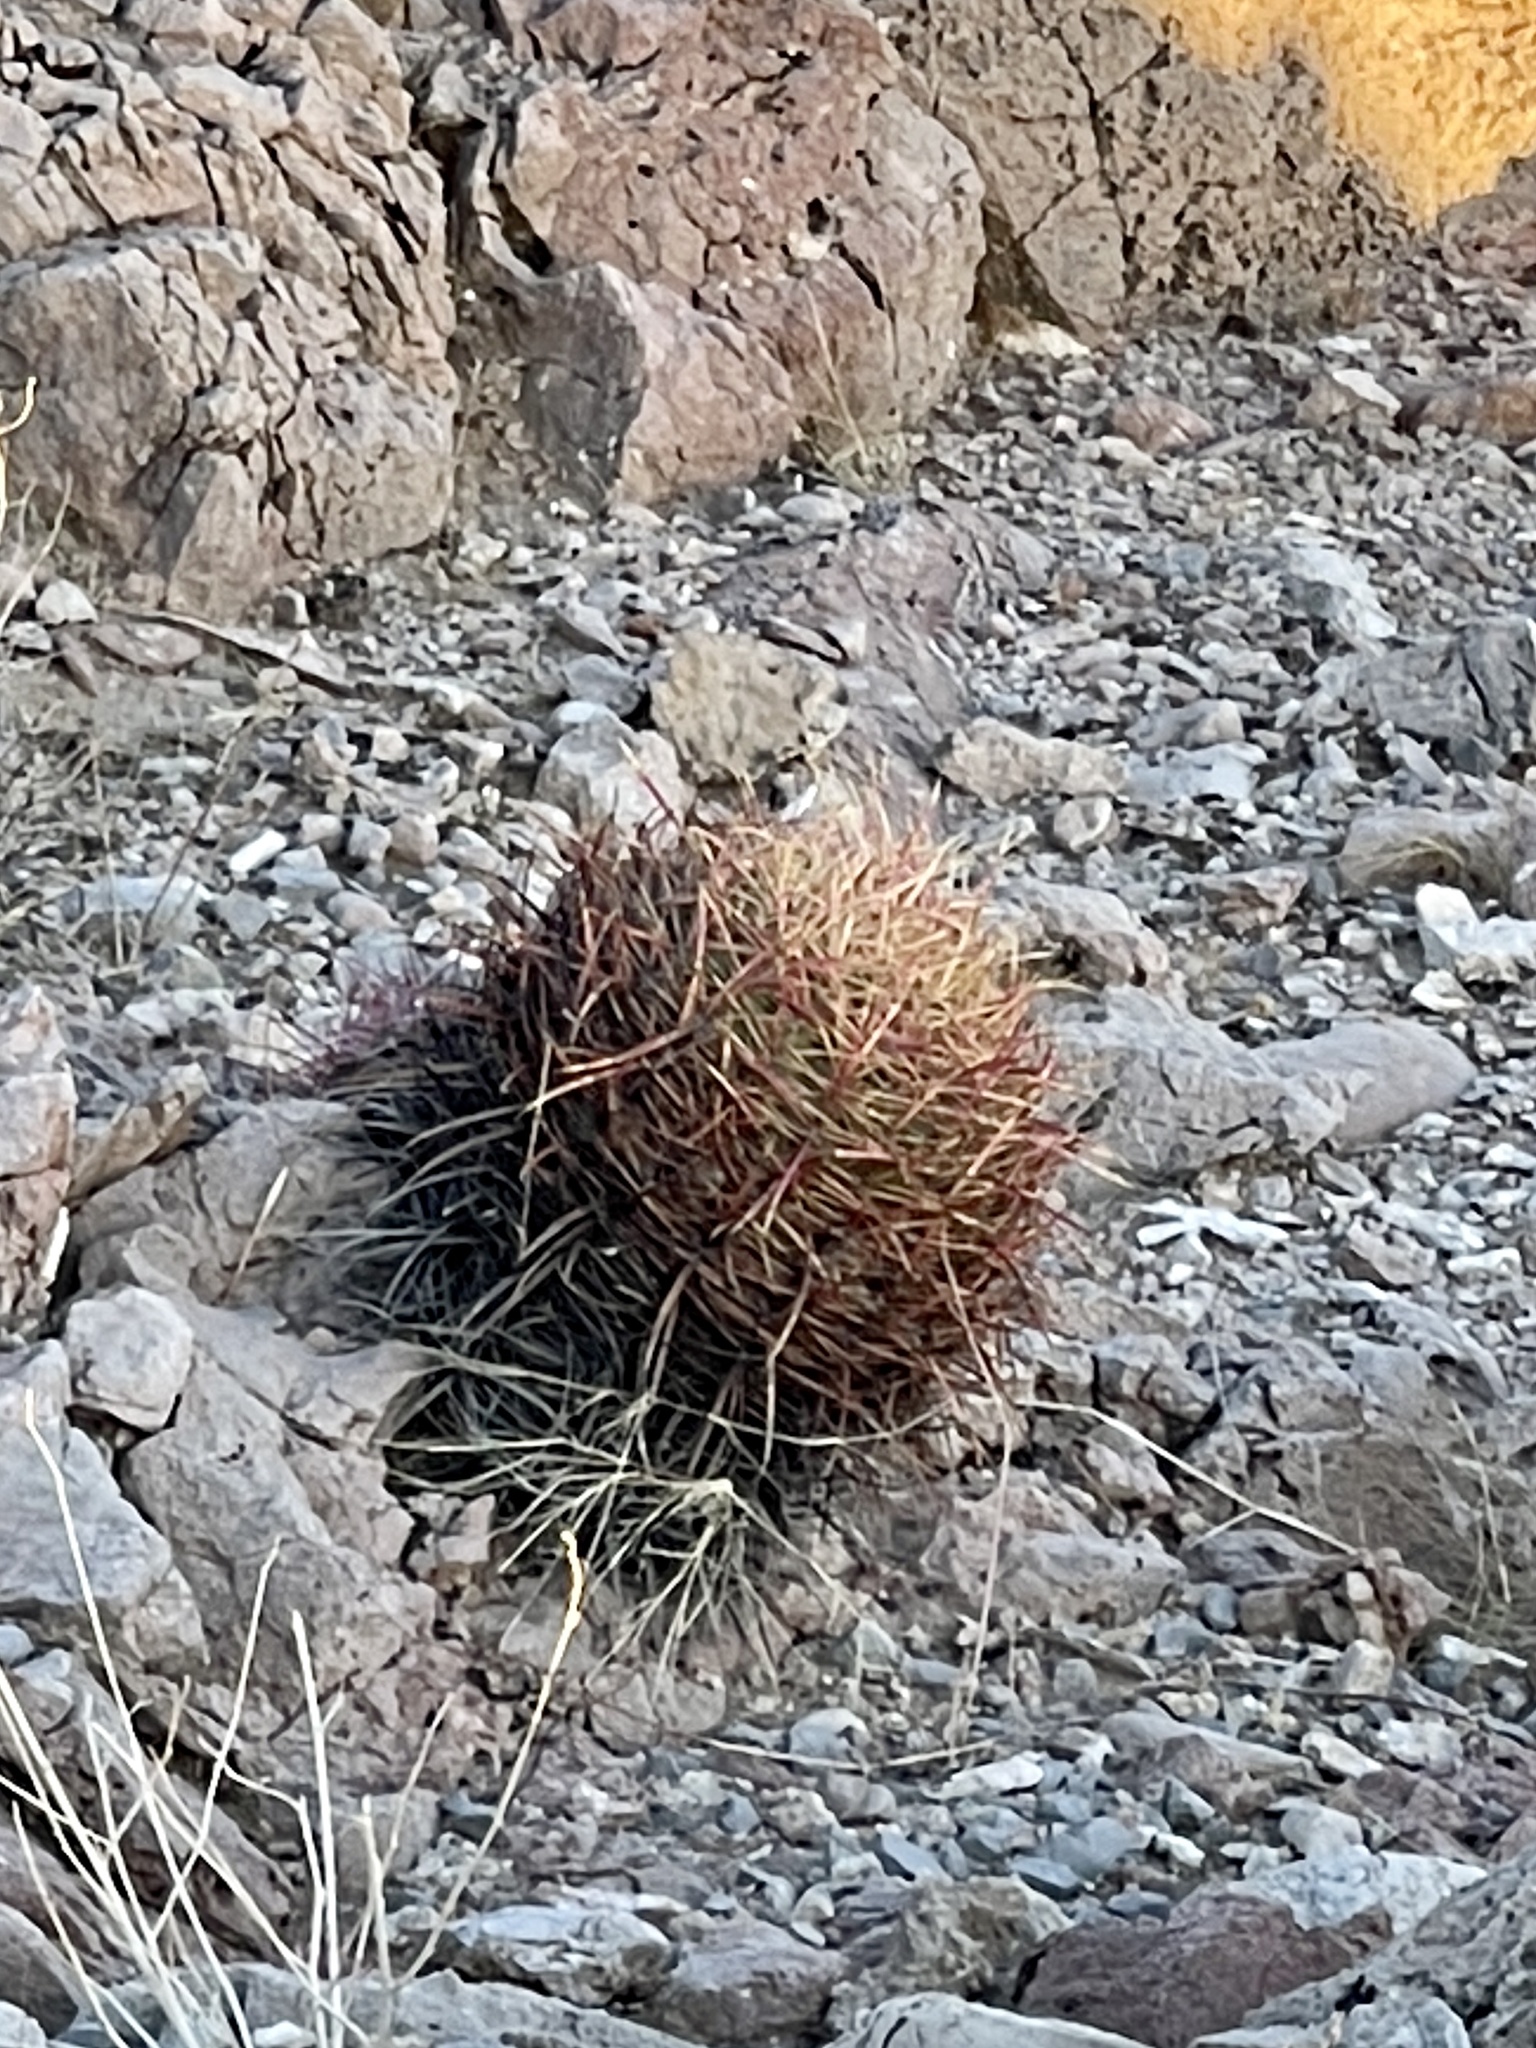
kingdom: Plantae
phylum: Tracheophyta
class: Magnoliopsida
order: Caryophyllales
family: Cactaceae
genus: Ferocactus
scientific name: Ferocactus cylindraceus
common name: California barrel cactus
